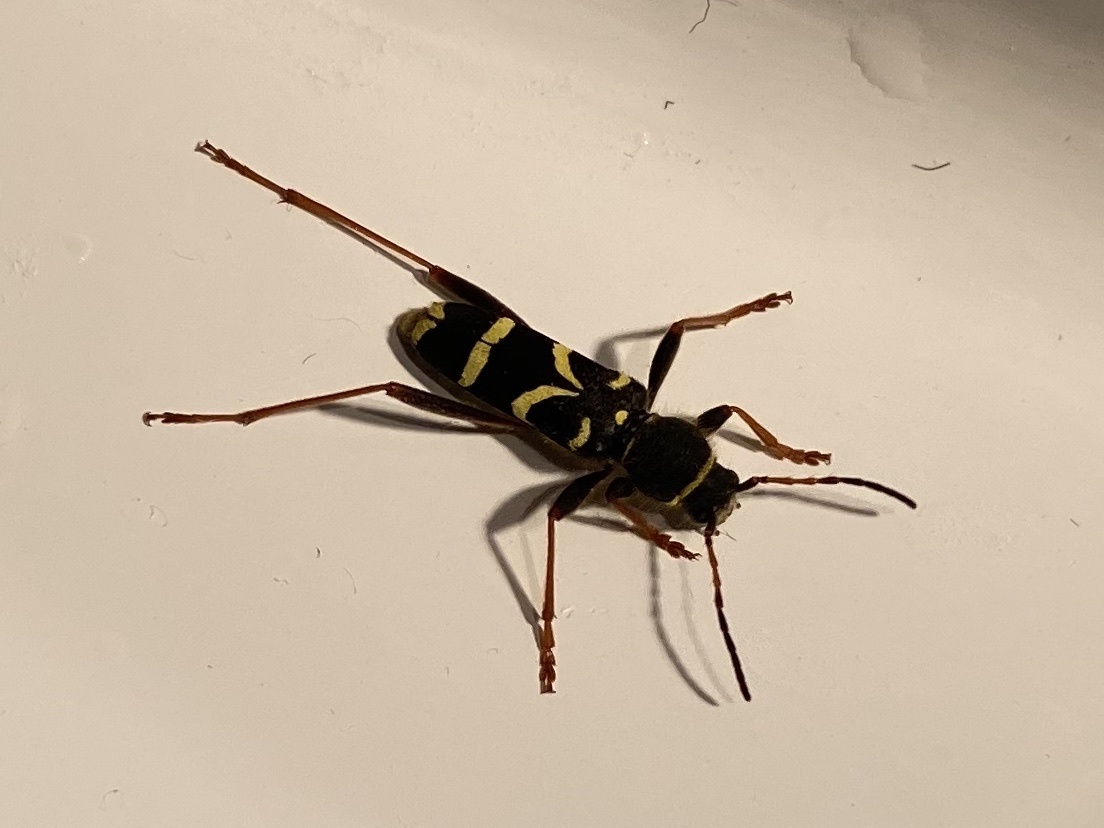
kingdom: Animalia
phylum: Arthropoda
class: Insecta
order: Coleoptera
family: Cerambycidae
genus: Clytus
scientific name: Clytus arietis
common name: Wasp beetle
